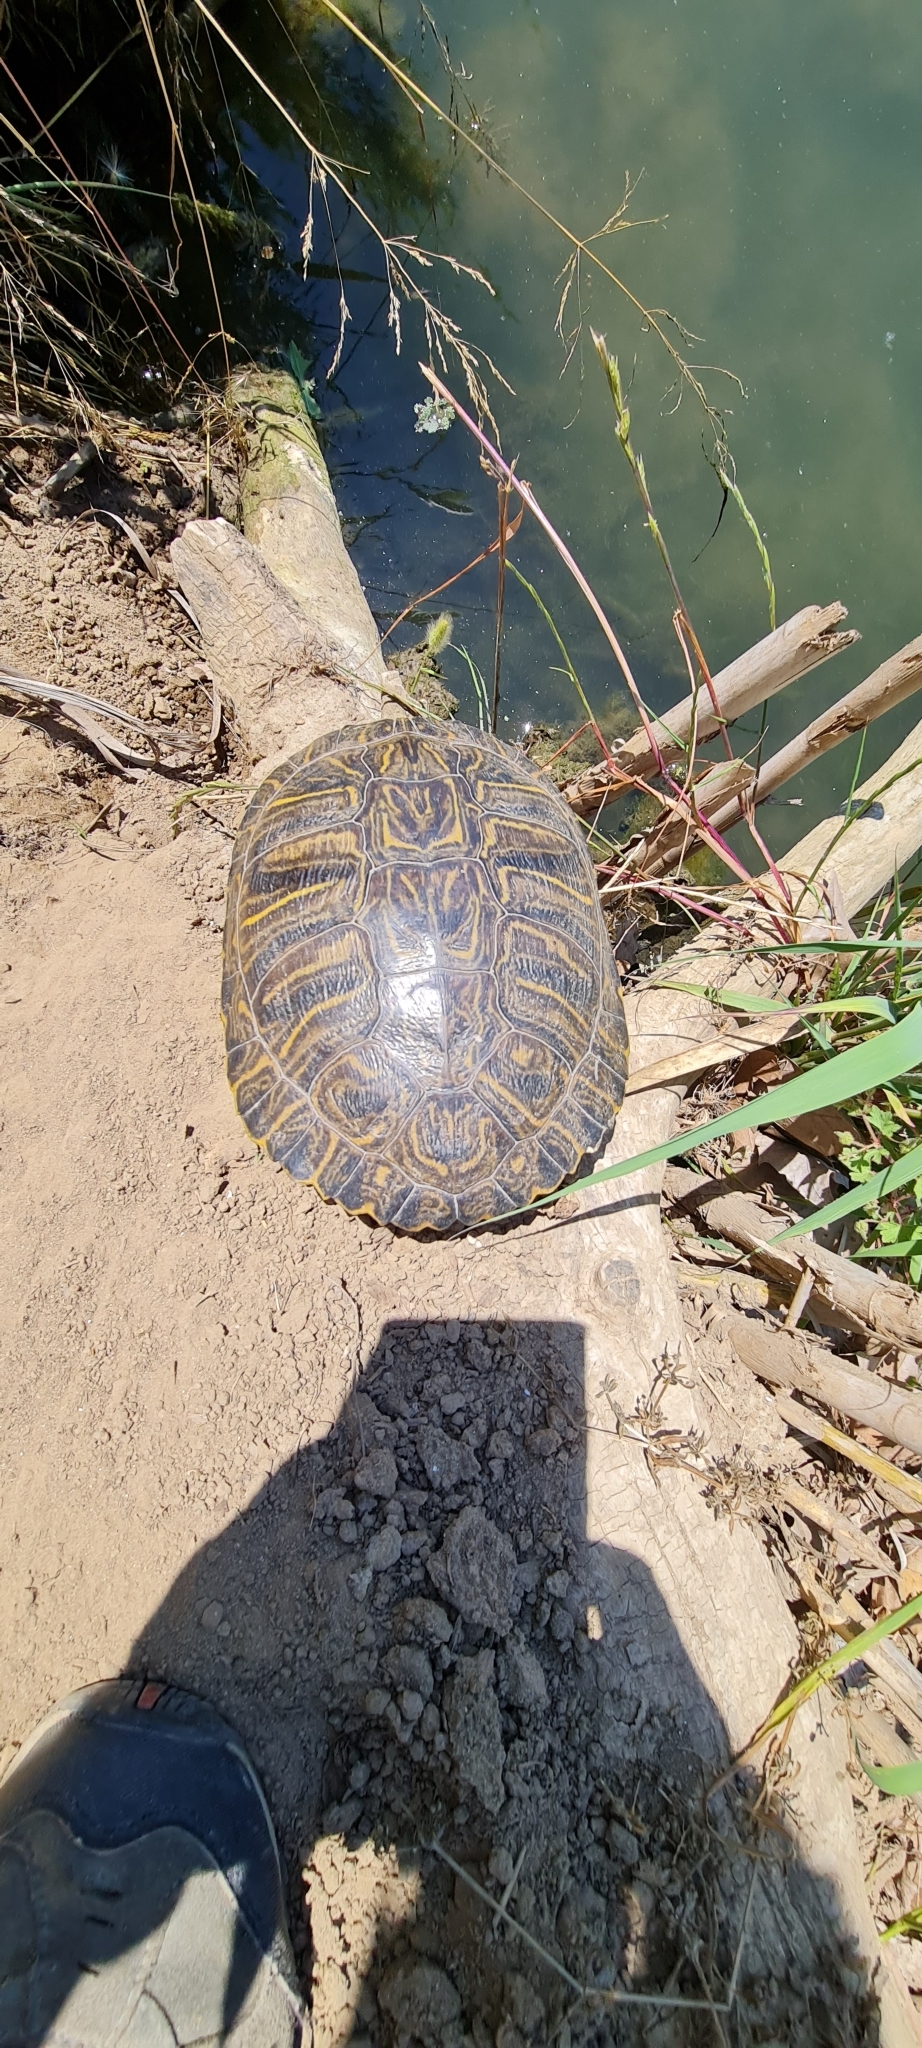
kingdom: Animalia
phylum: Chordata
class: Testudines
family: Emydidae
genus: Trachemys
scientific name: Trachemys scripta
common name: Slider
